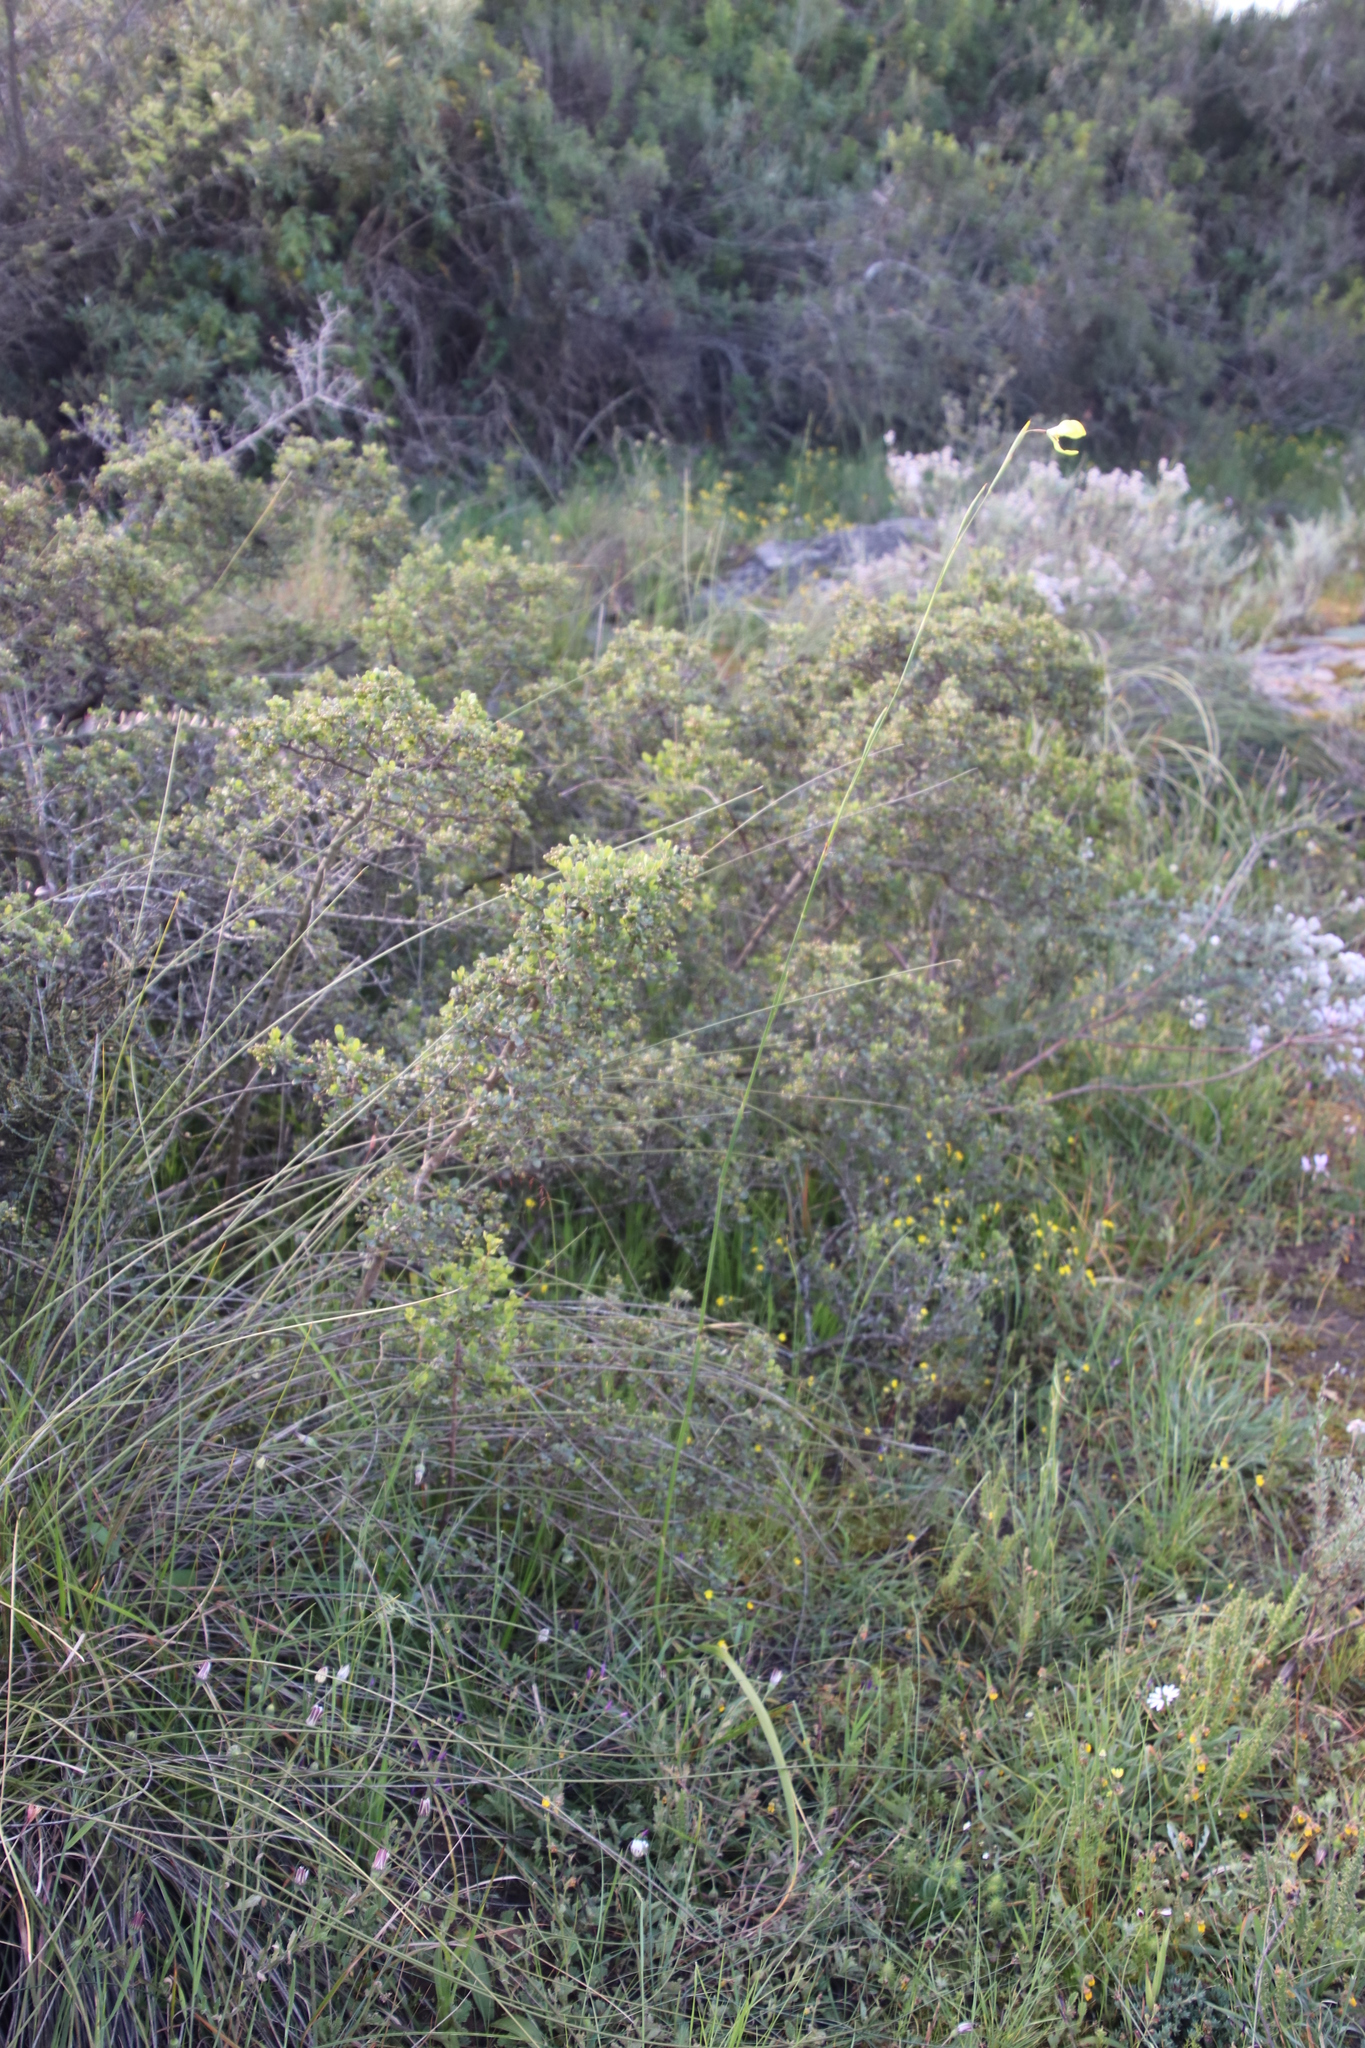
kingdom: Plantae
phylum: Tracheophyta
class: Liliopsida
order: Asparagales
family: Iridaceae
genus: Moraea
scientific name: Moraea bellendenii
